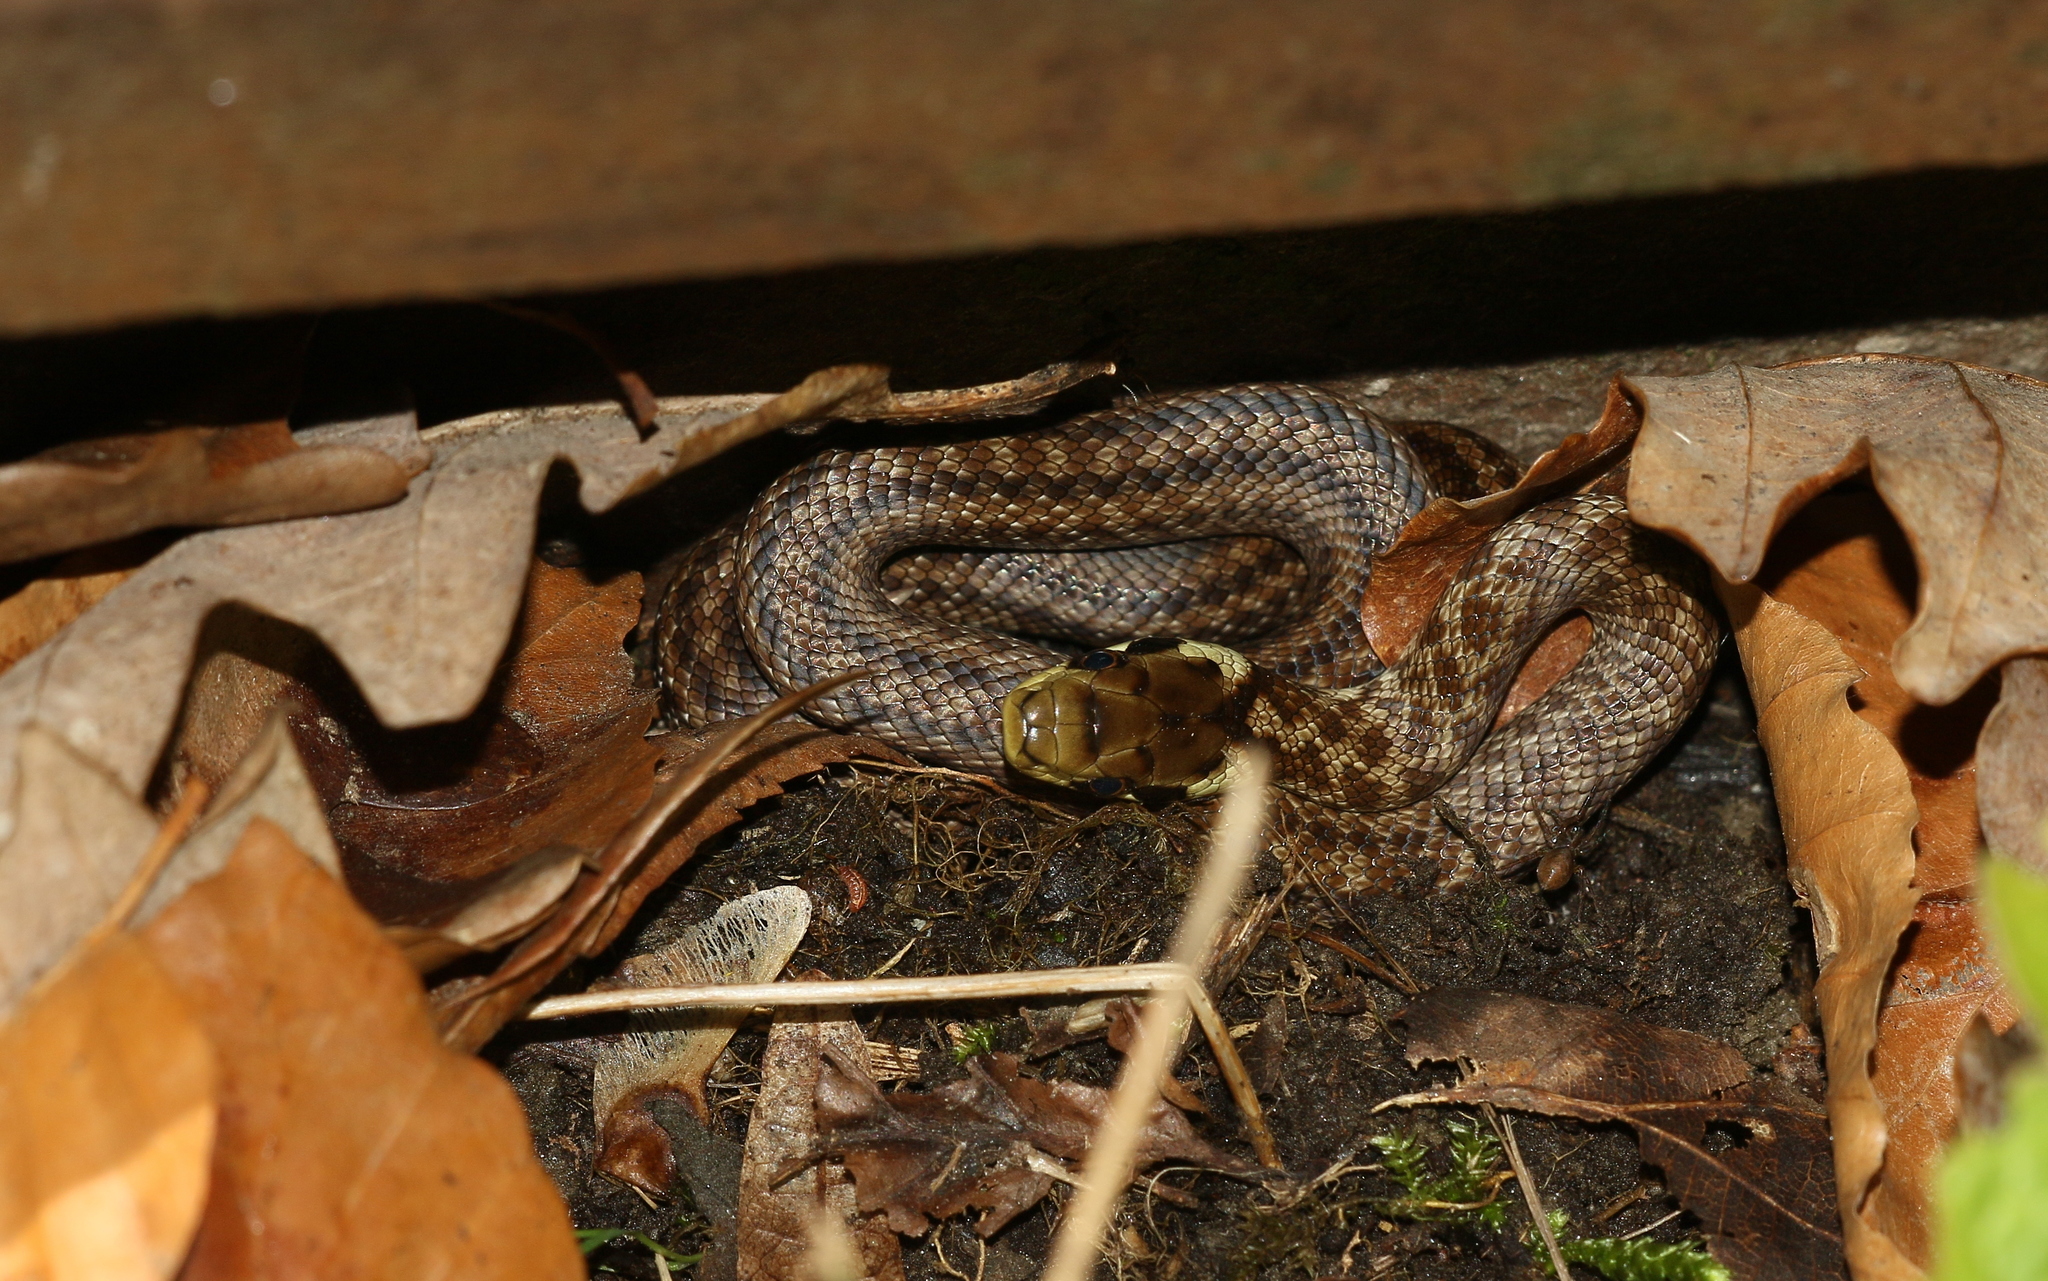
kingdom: Animalia
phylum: Chordata
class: Squamata
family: Colubridae
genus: Zamenis
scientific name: Zamenis longissimus
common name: Aesculapean snake
